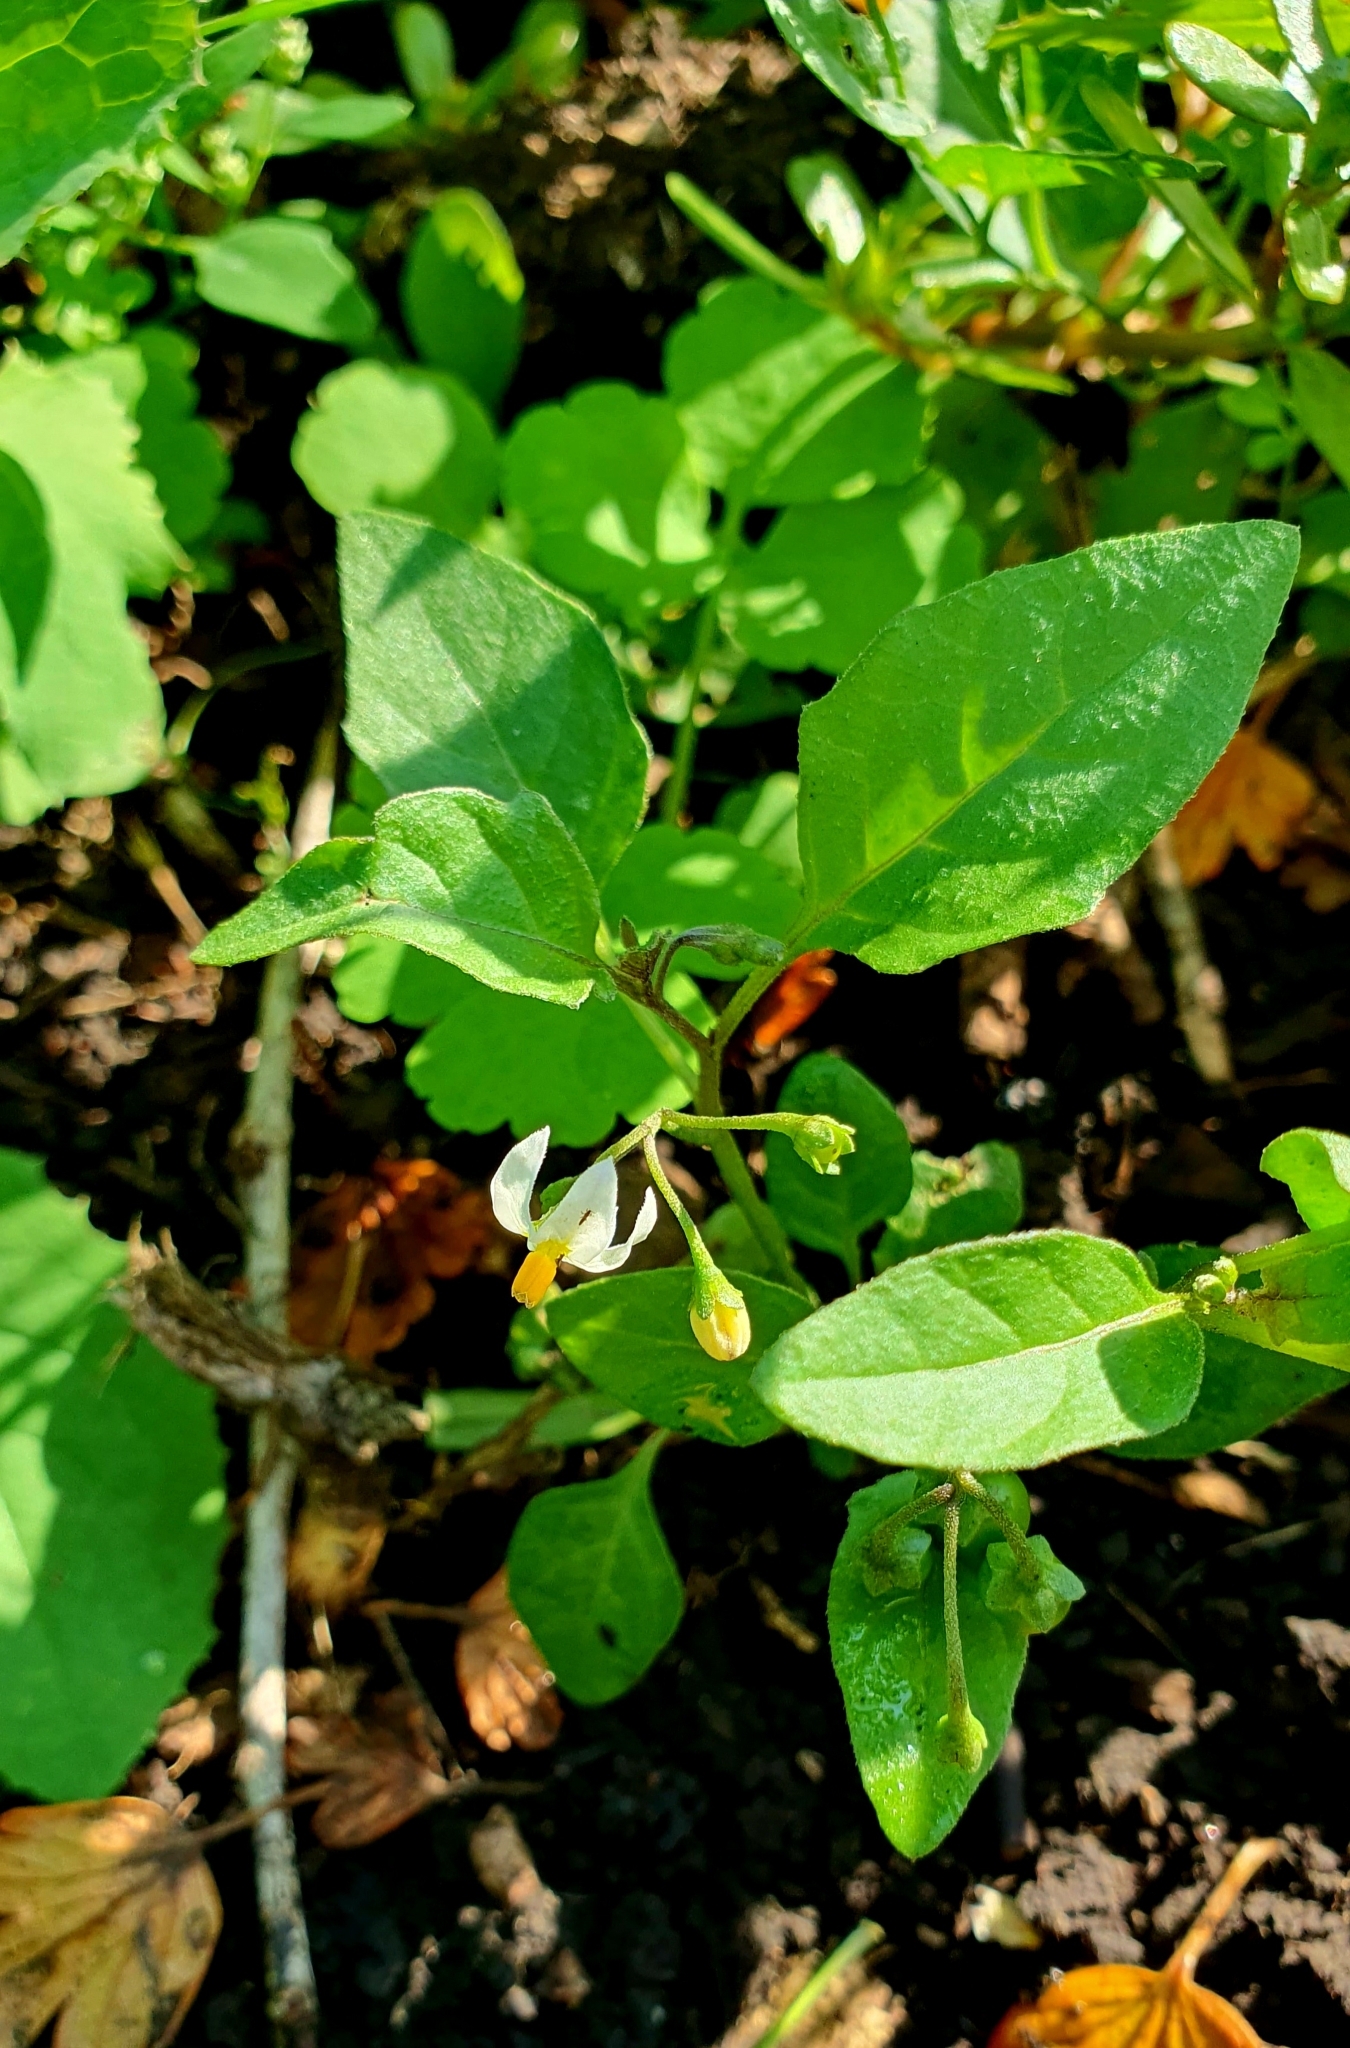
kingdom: Plantae
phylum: Tracheophyta
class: Magnoliopsida
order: Solanales
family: Solanaceae
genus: Solanum
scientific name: Solanum nigrum
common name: Black nightshade
